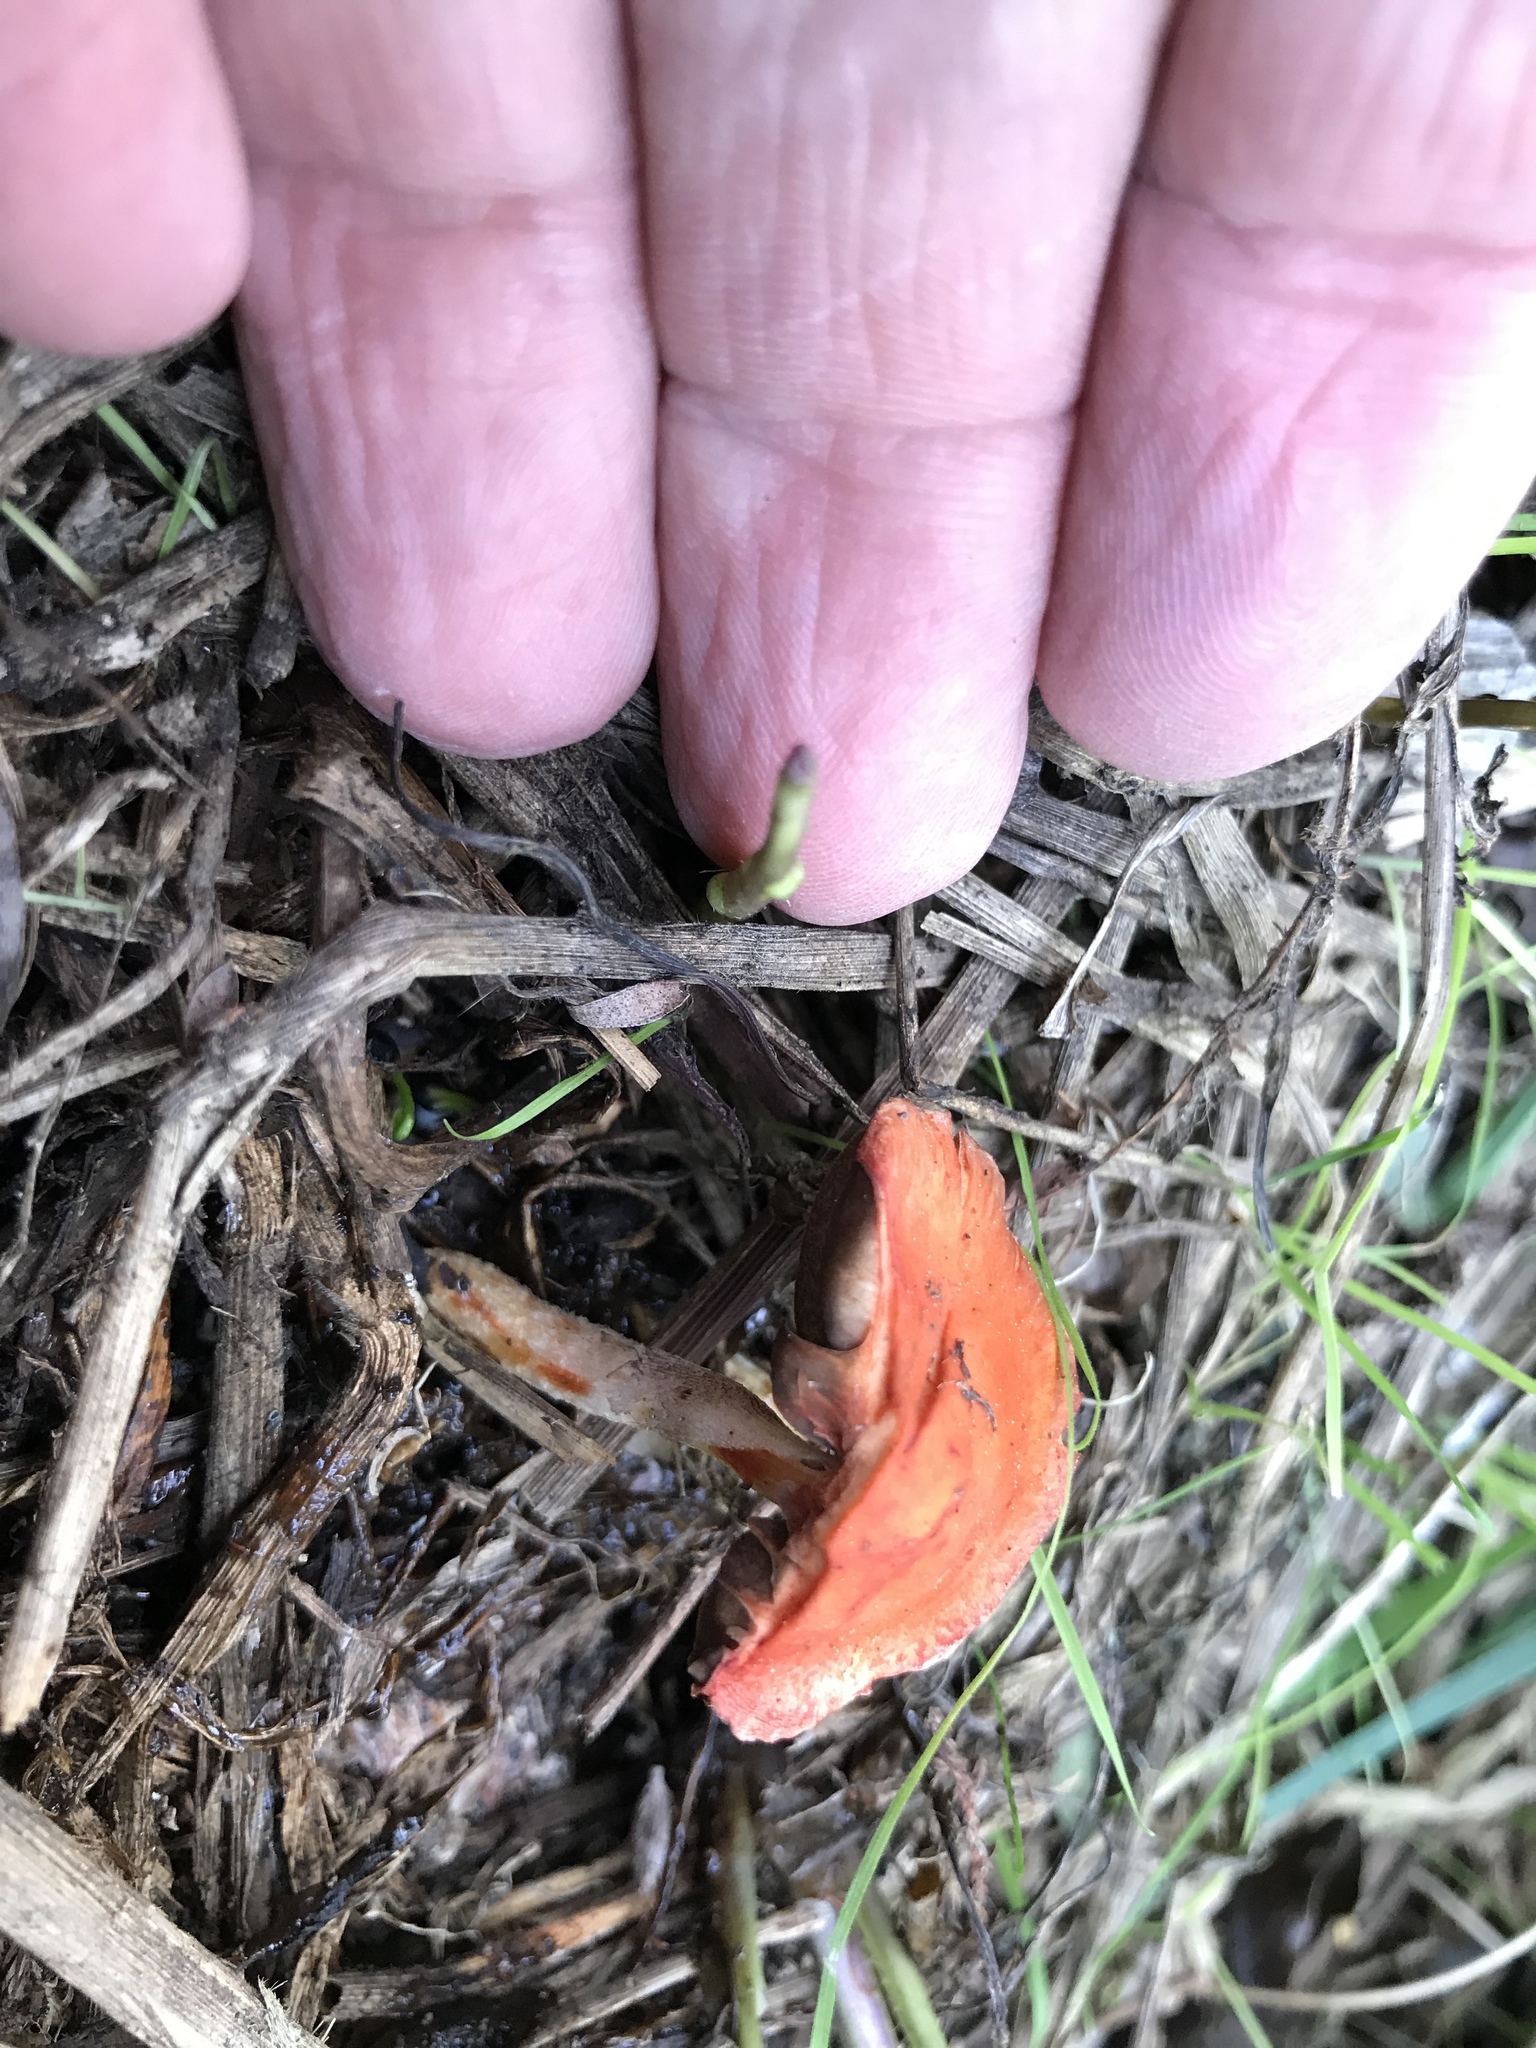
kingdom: Fungi
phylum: Basidiomycota
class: Agaricomycetes
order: Agaricales
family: Strophariaceae
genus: Leratiomyces
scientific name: Leratiomyces ceres
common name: Redlead roundhead
